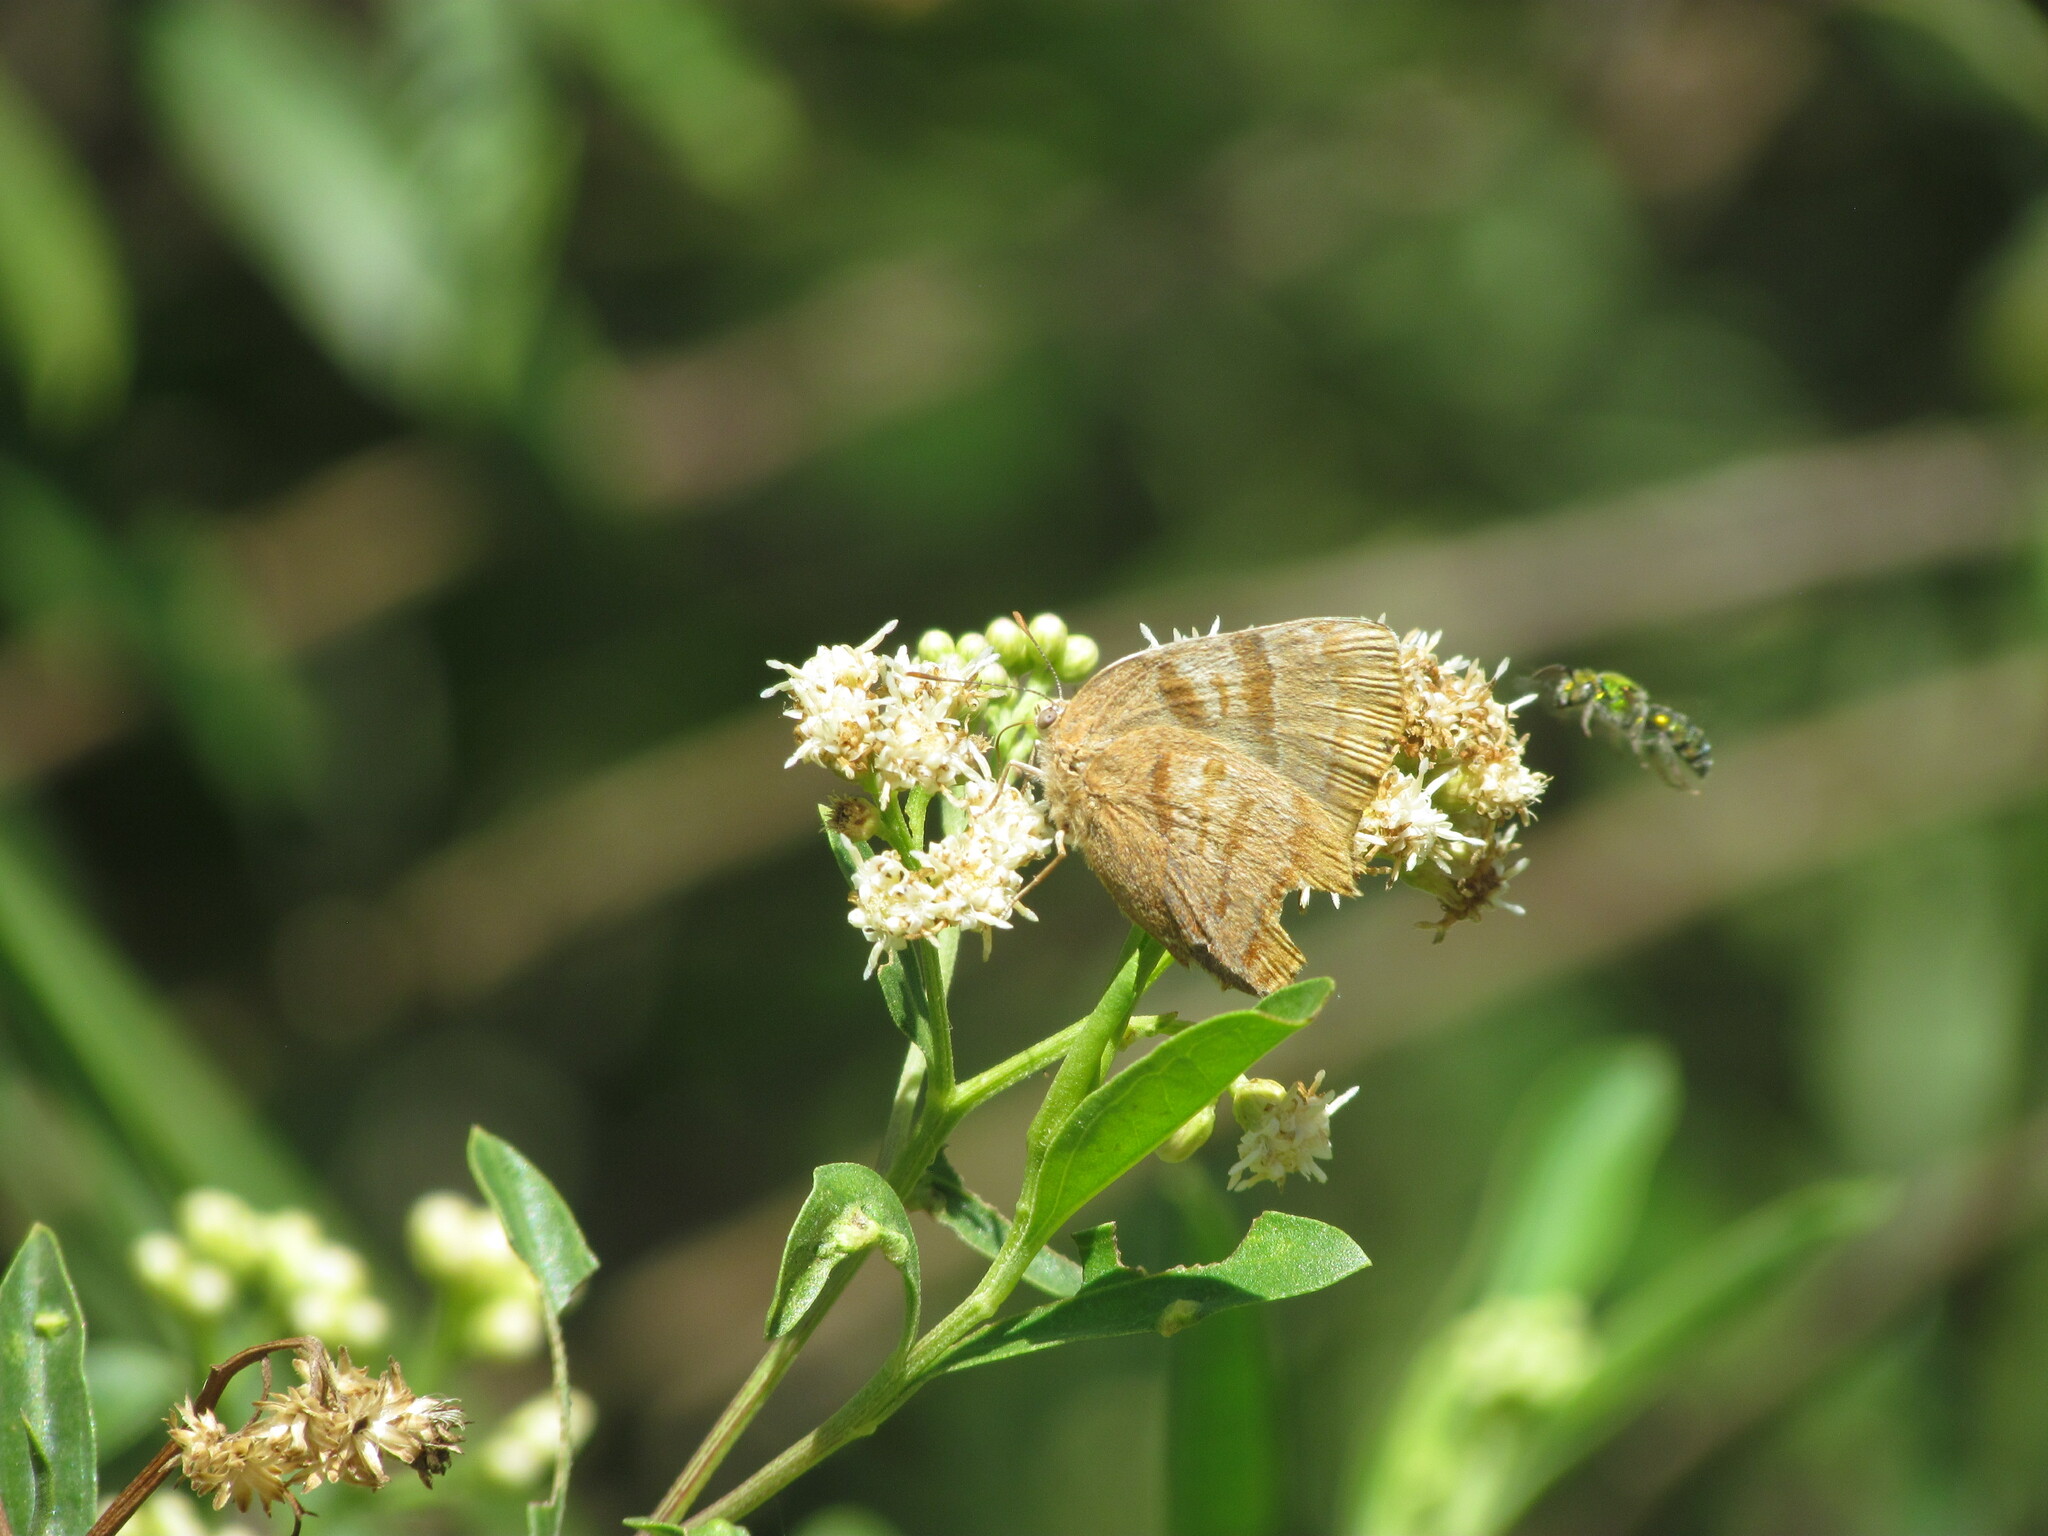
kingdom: Animalia
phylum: Arthropoda
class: Insecta
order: Lepidoptera
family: Lycaenidae
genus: Thecla
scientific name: Thecla marius
